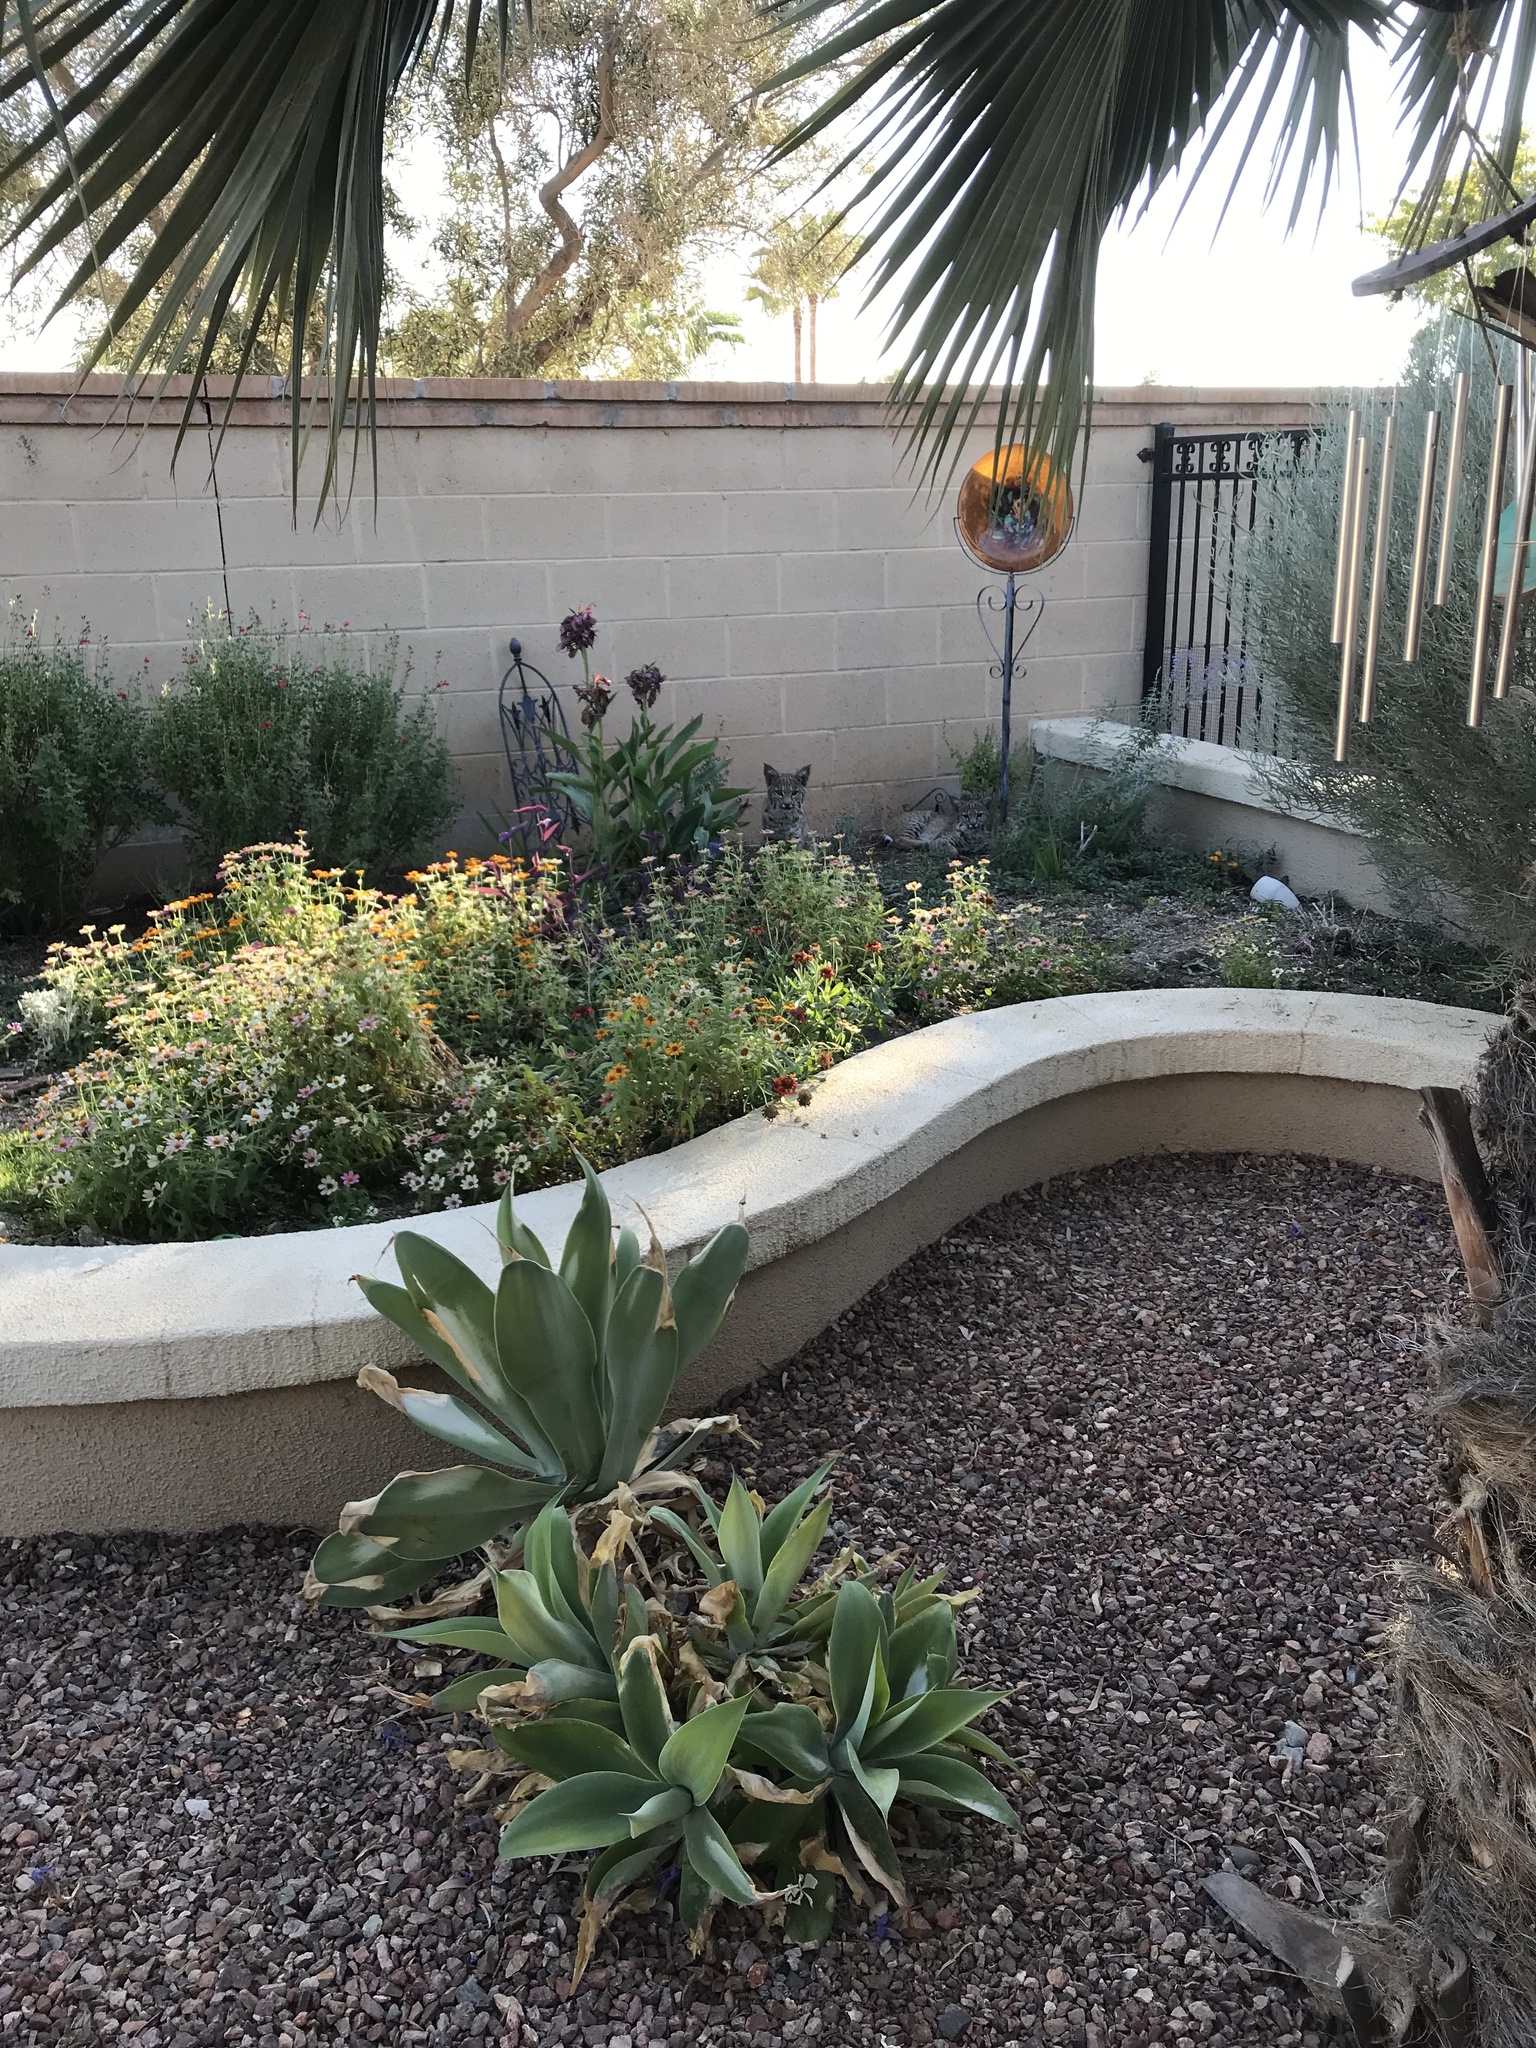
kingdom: Animalia
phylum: Chordata
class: Mammalia
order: Carnivora
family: Felidae
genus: Lynx
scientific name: Lynx rufus
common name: Bobcat
